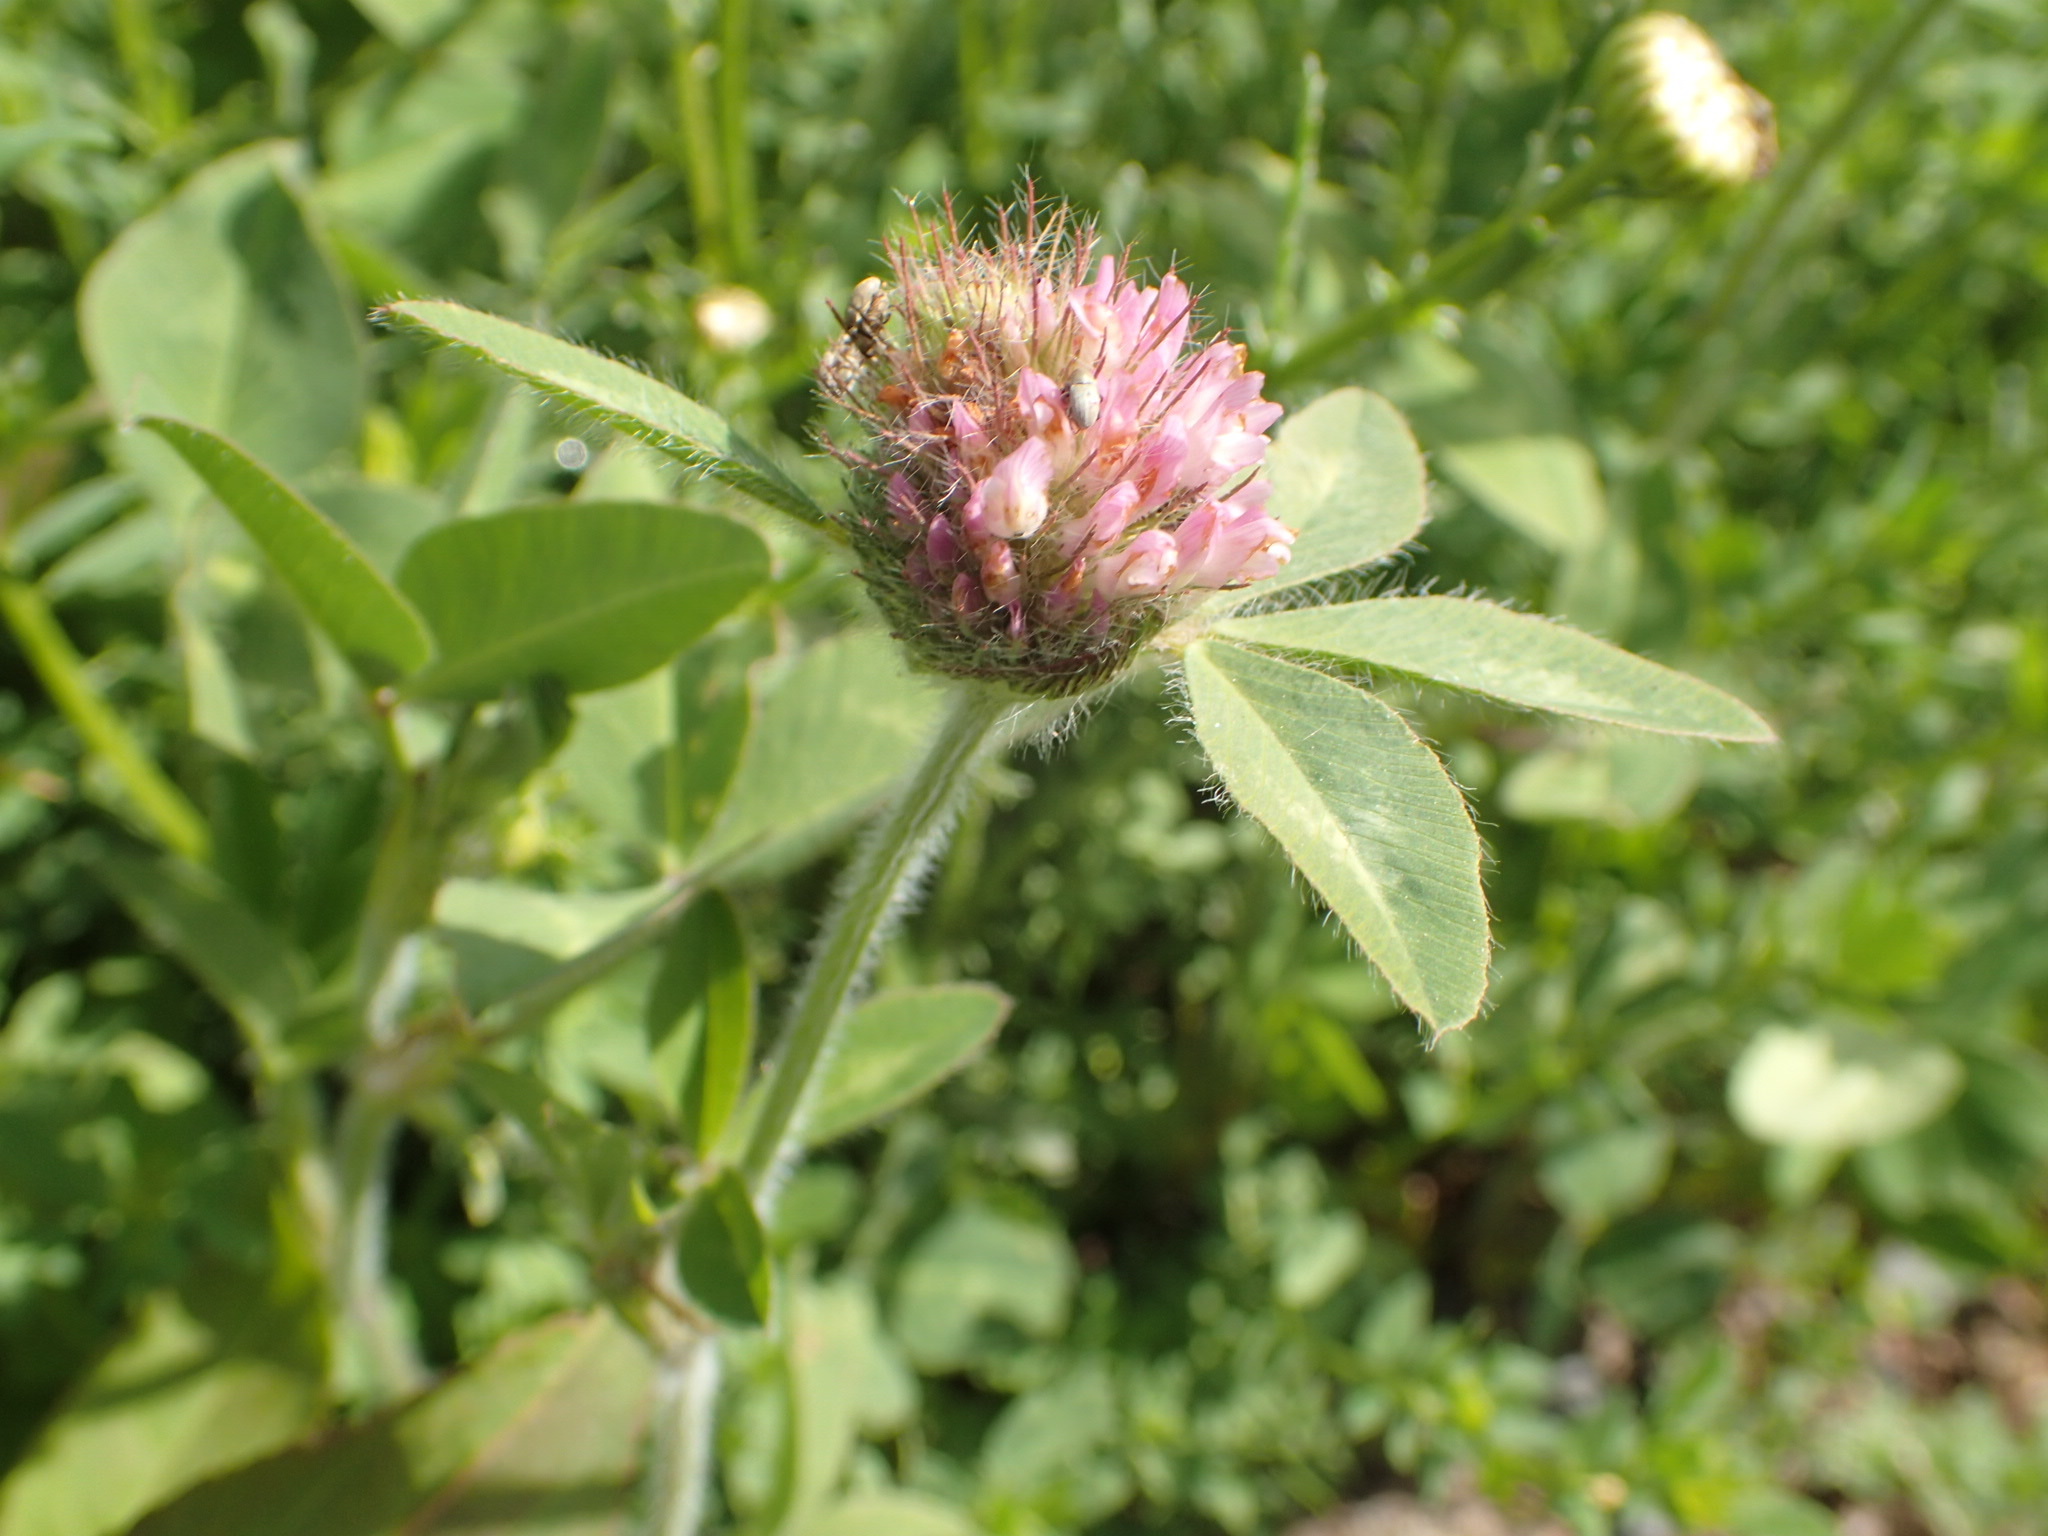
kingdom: Plantae
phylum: Tracheophyta
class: Magnoliopsida
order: Fabales
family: Fabaceae
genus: Trifolium
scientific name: Trifolium pratense
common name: Red clover
